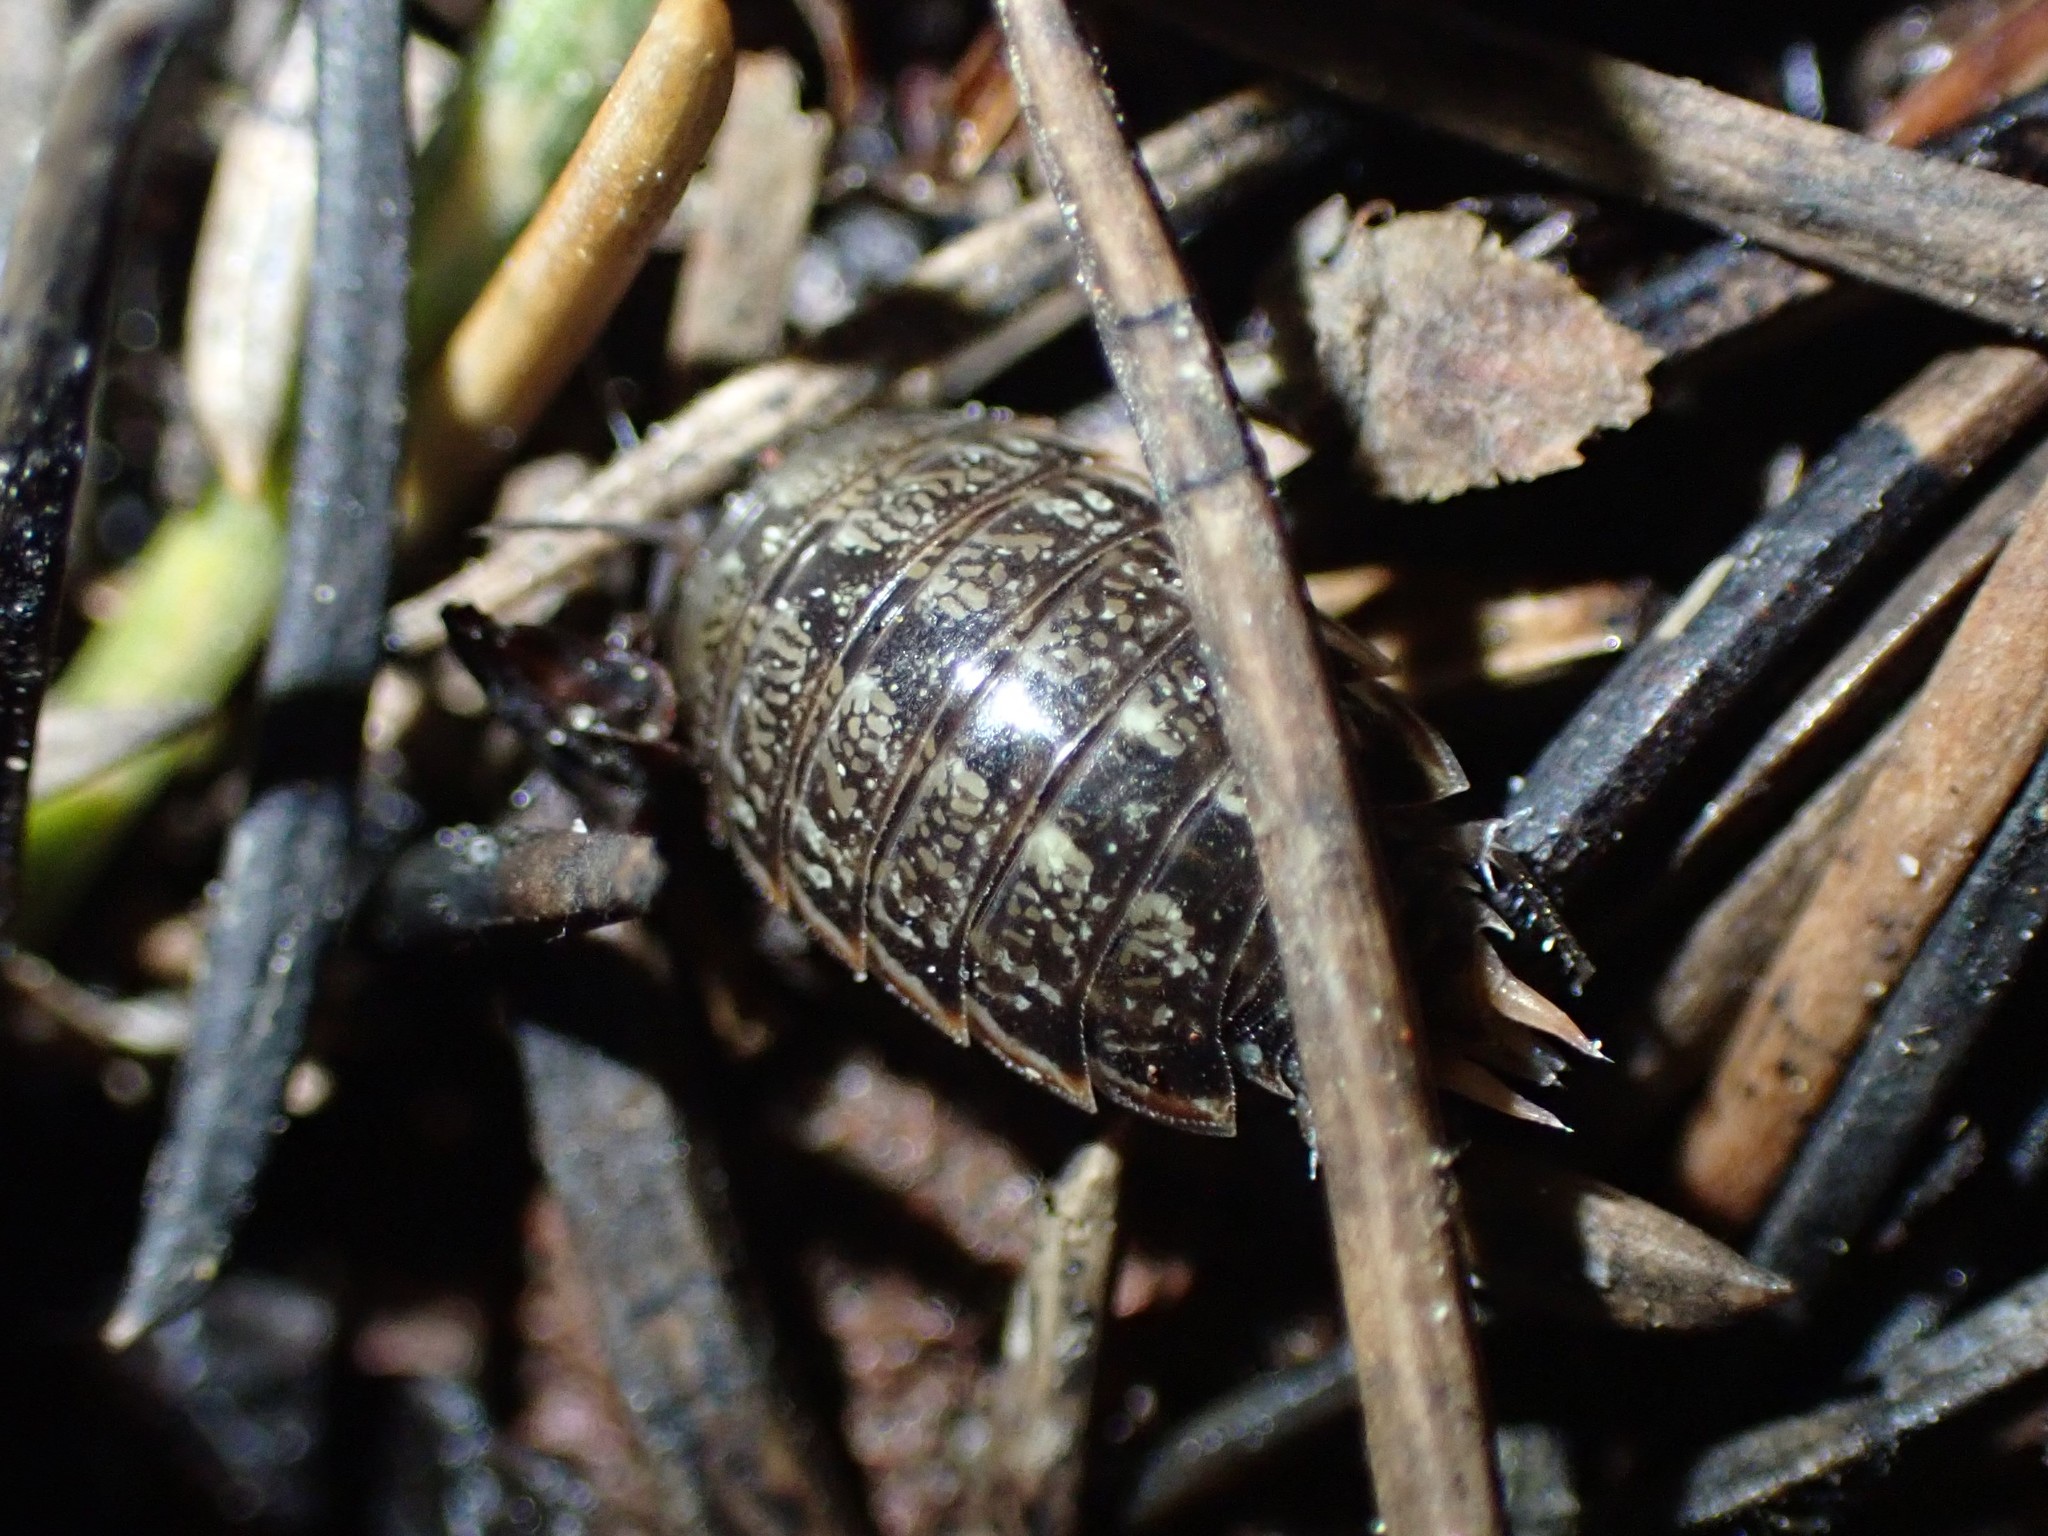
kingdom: Animalia
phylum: Arthropoda
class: Malacostraca
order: Isopoda
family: Philosciidae
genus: Philoscia
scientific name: Philoscia muscorum
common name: Common striped woodlouse
